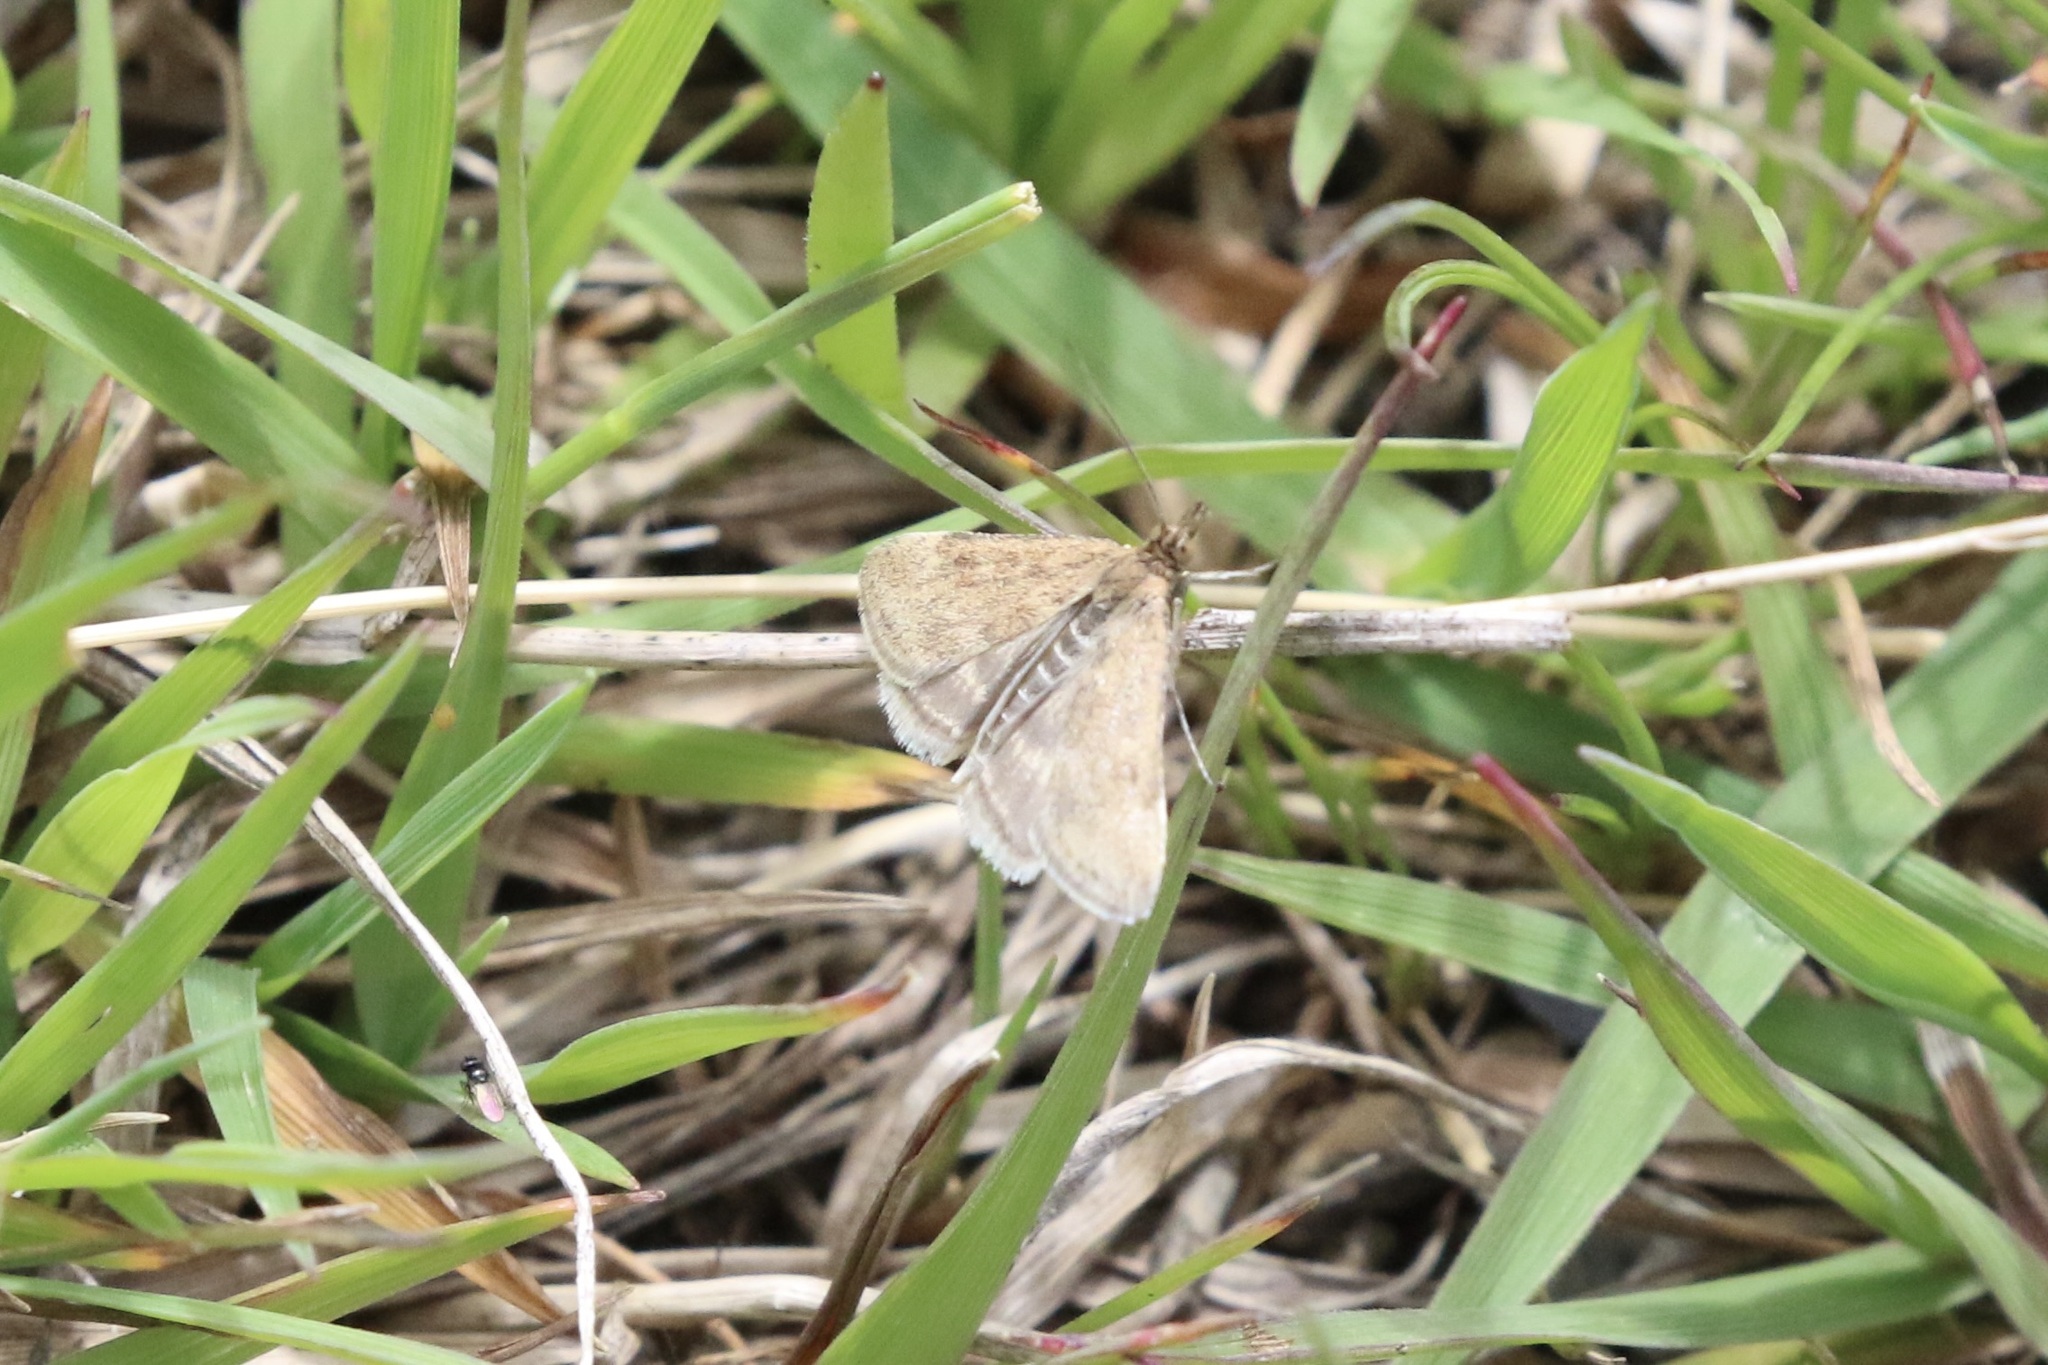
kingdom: Animalia
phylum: Arthropoda
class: Insecta
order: Lepidoptera
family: Crambidae
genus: Pyrausta
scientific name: Pyrausta despicata
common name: Straw-barred pearl
